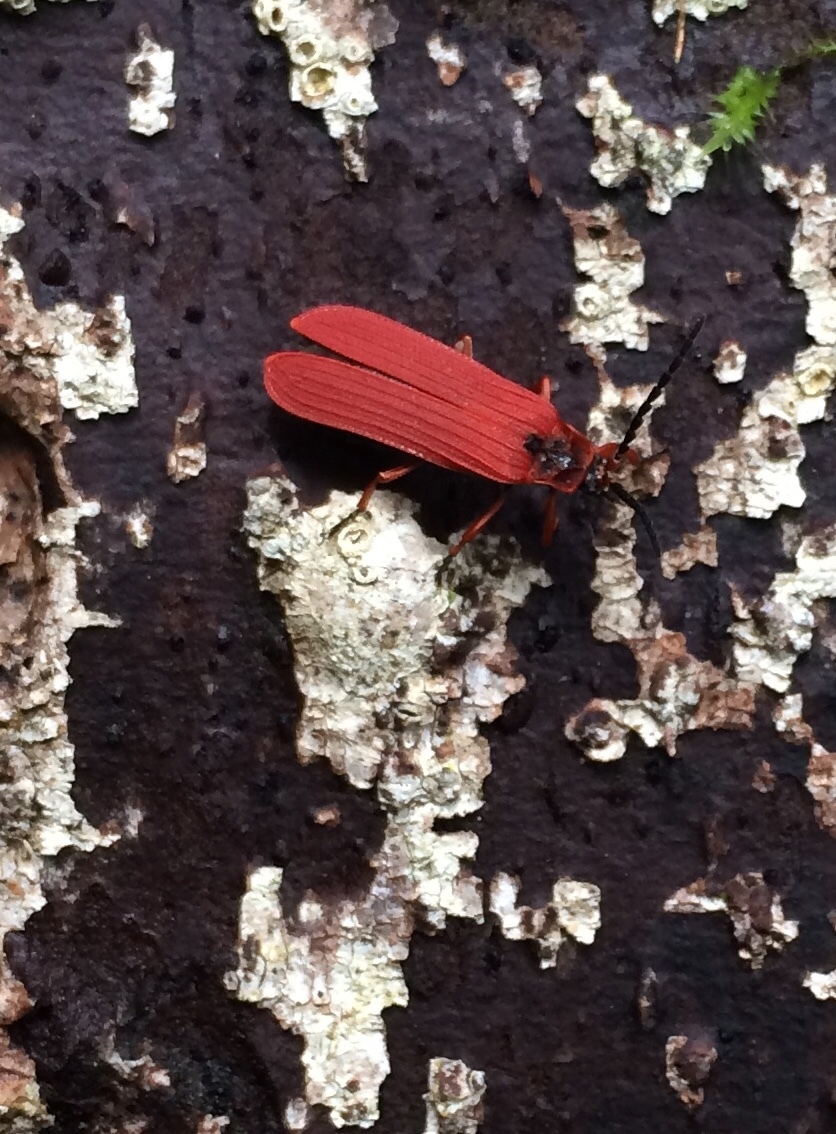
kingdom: Animalia
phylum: Arthropoda
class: Insecta
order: Coleoptera
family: Lycidae
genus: Dictyoptera
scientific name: Dictyoptera simplicipes
